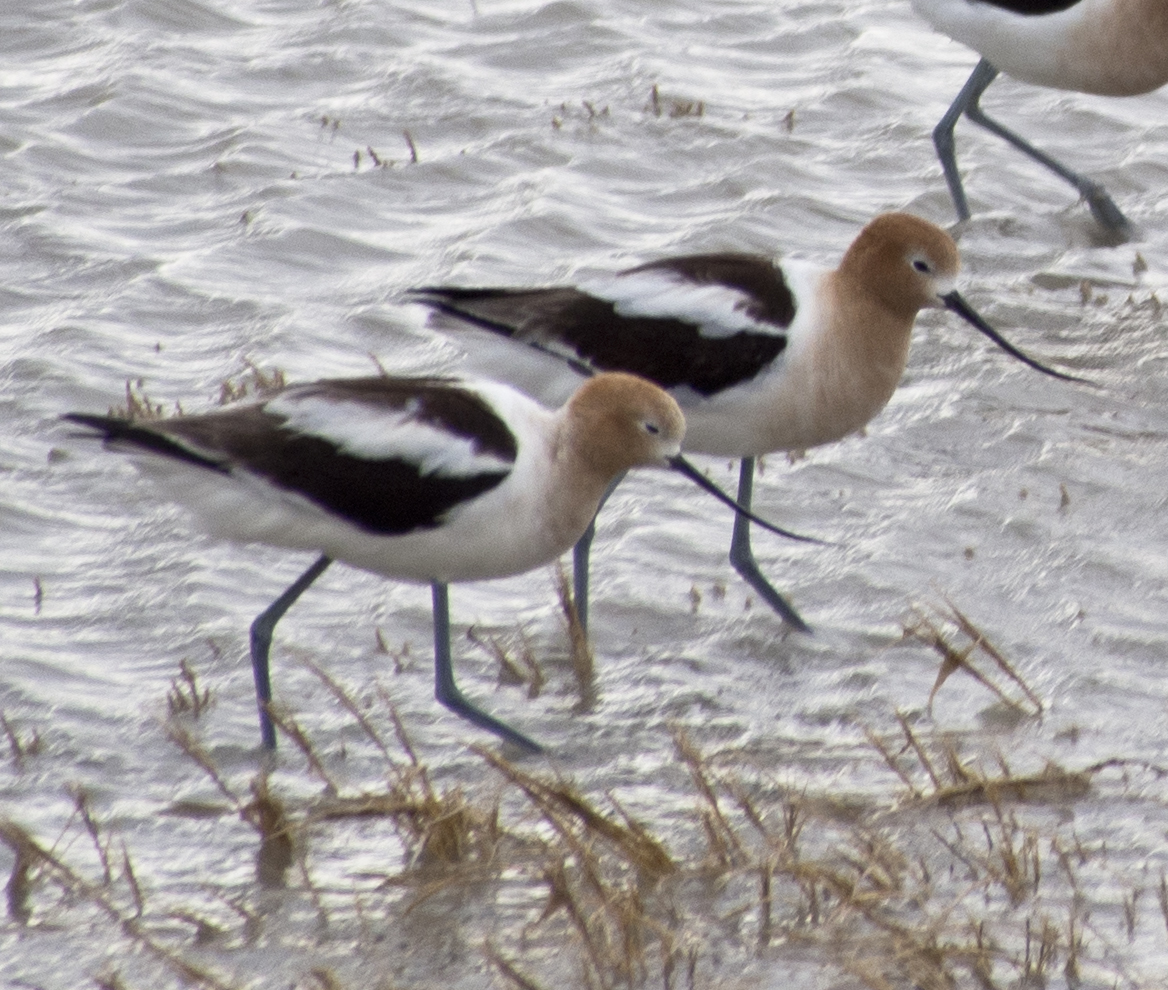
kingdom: Animalia
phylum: Chordata
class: Aves
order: Charadriiformes
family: Recurvirostridae
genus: Recurvirostra
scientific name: Recurvirostra americana
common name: American avocet
